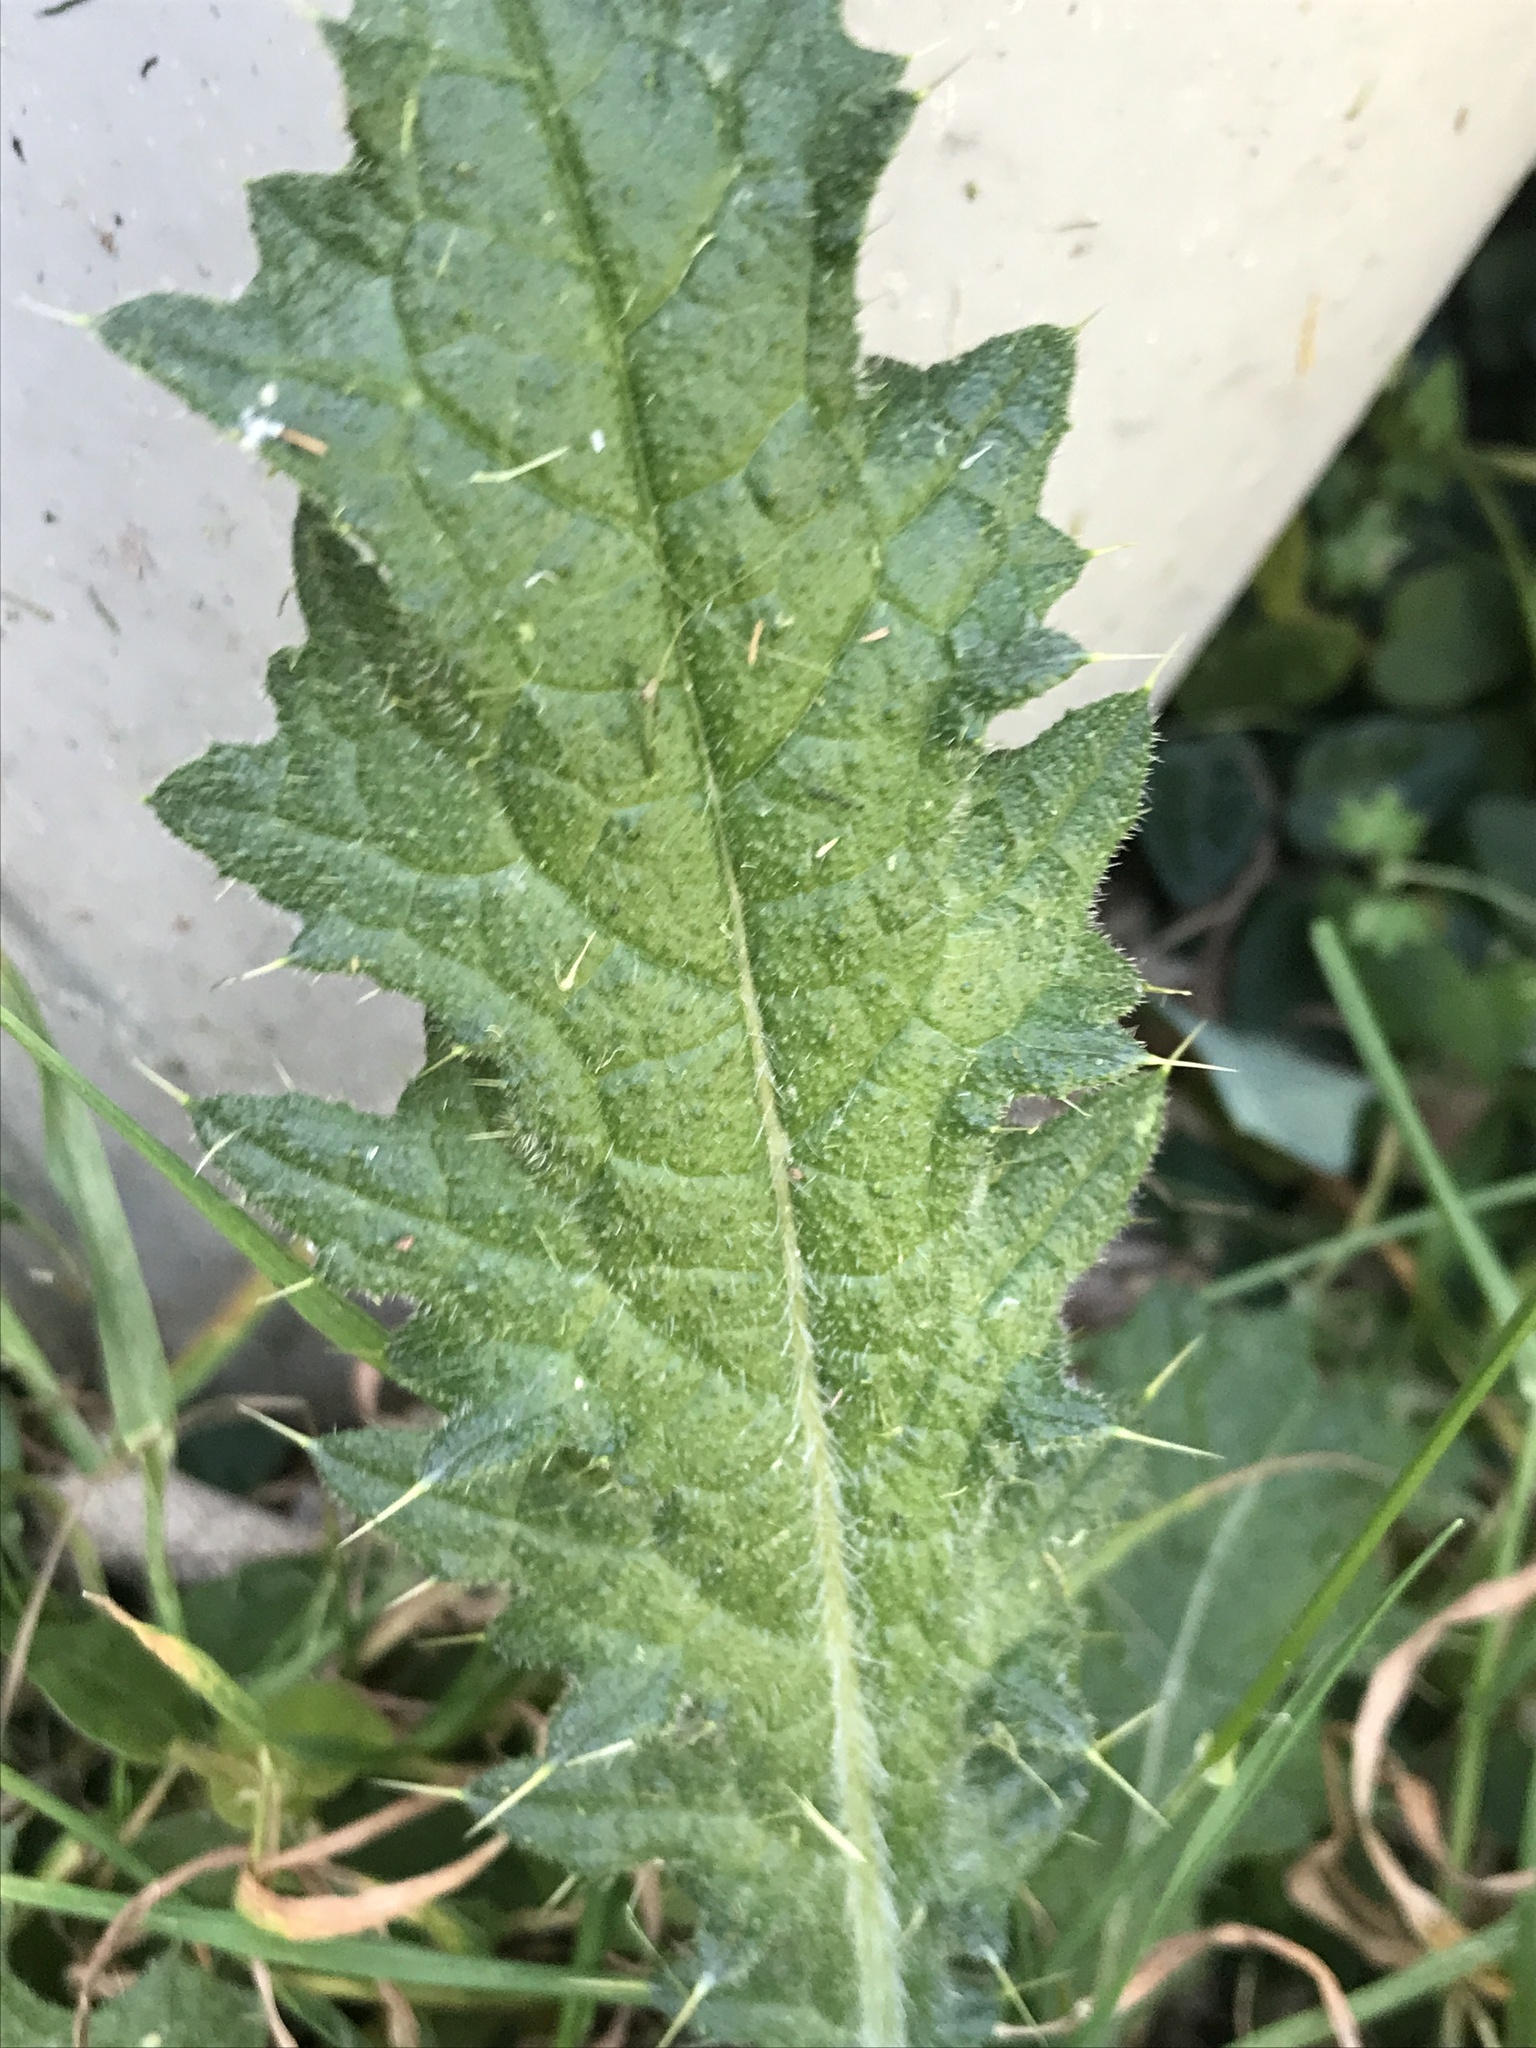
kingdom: Plantae
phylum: Tracheophyta
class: Magnoliopsida
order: Asterales
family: Asteraceae
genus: Cirsium
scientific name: Cirsium vulgare
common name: Bull thistle
